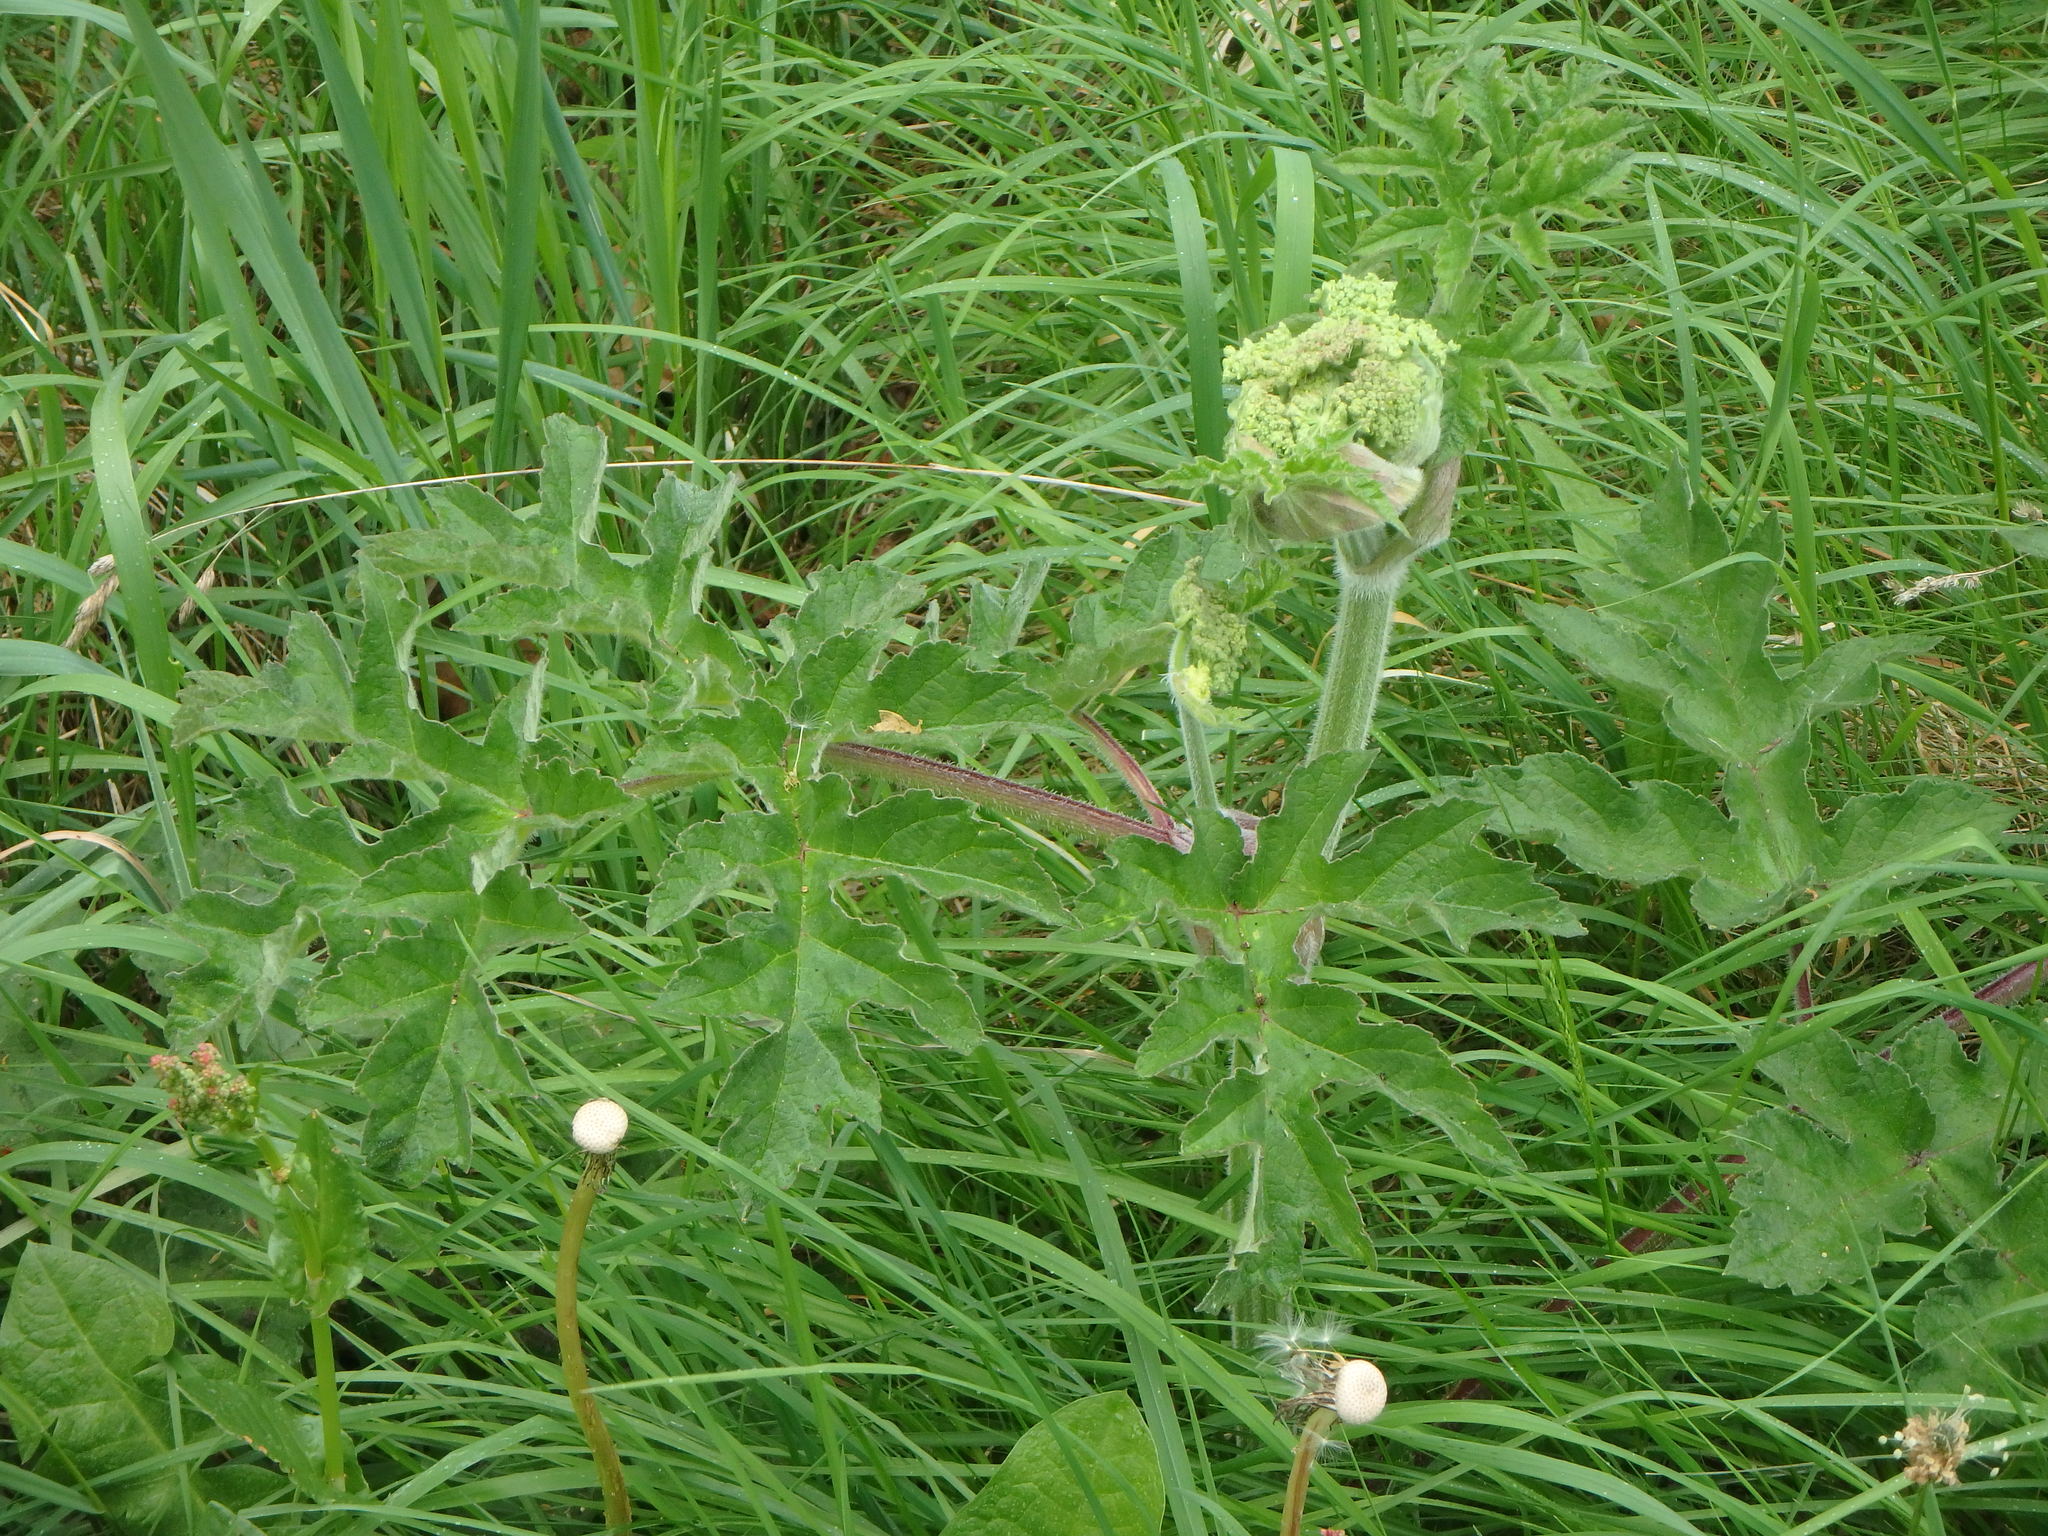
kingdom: Plantae
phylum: Tracheophyta
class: Magnoliopsida
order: Apiales
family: Apiaceae
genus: Heracleum
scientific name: Heracleum sphondylium
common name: Hogweed
